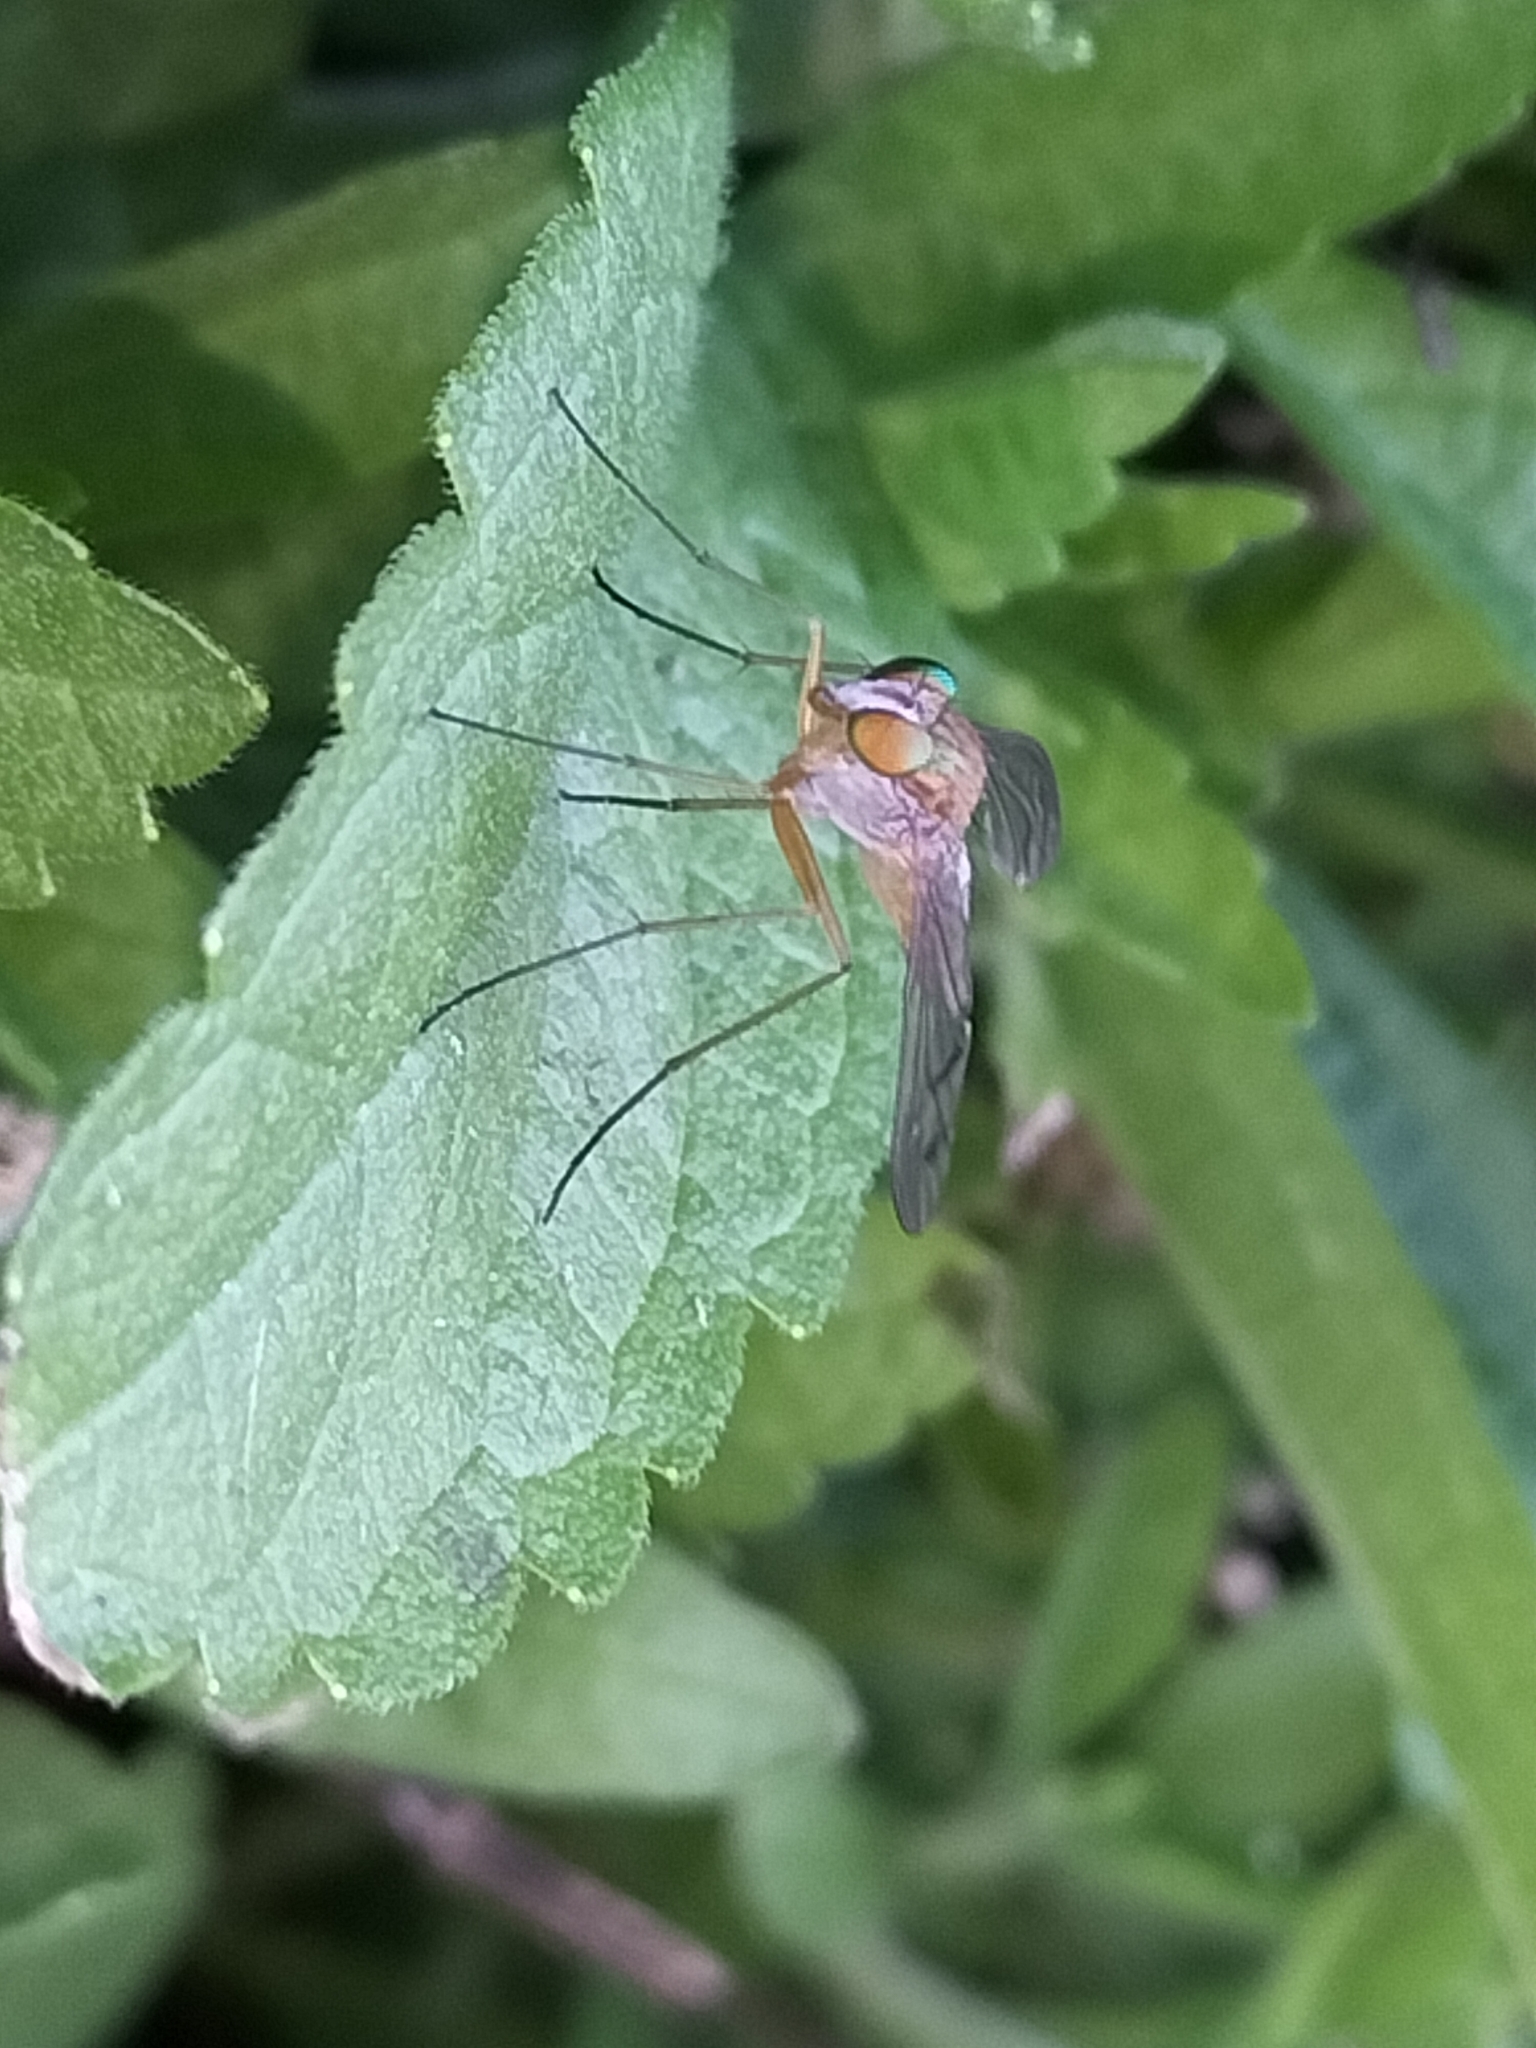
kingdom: Animalia
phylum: Arthropoda
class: Insecta
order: Diptera
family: Dolichopodidae
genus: Heteropsilopus
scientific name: Heteropsilopus brevicorne
